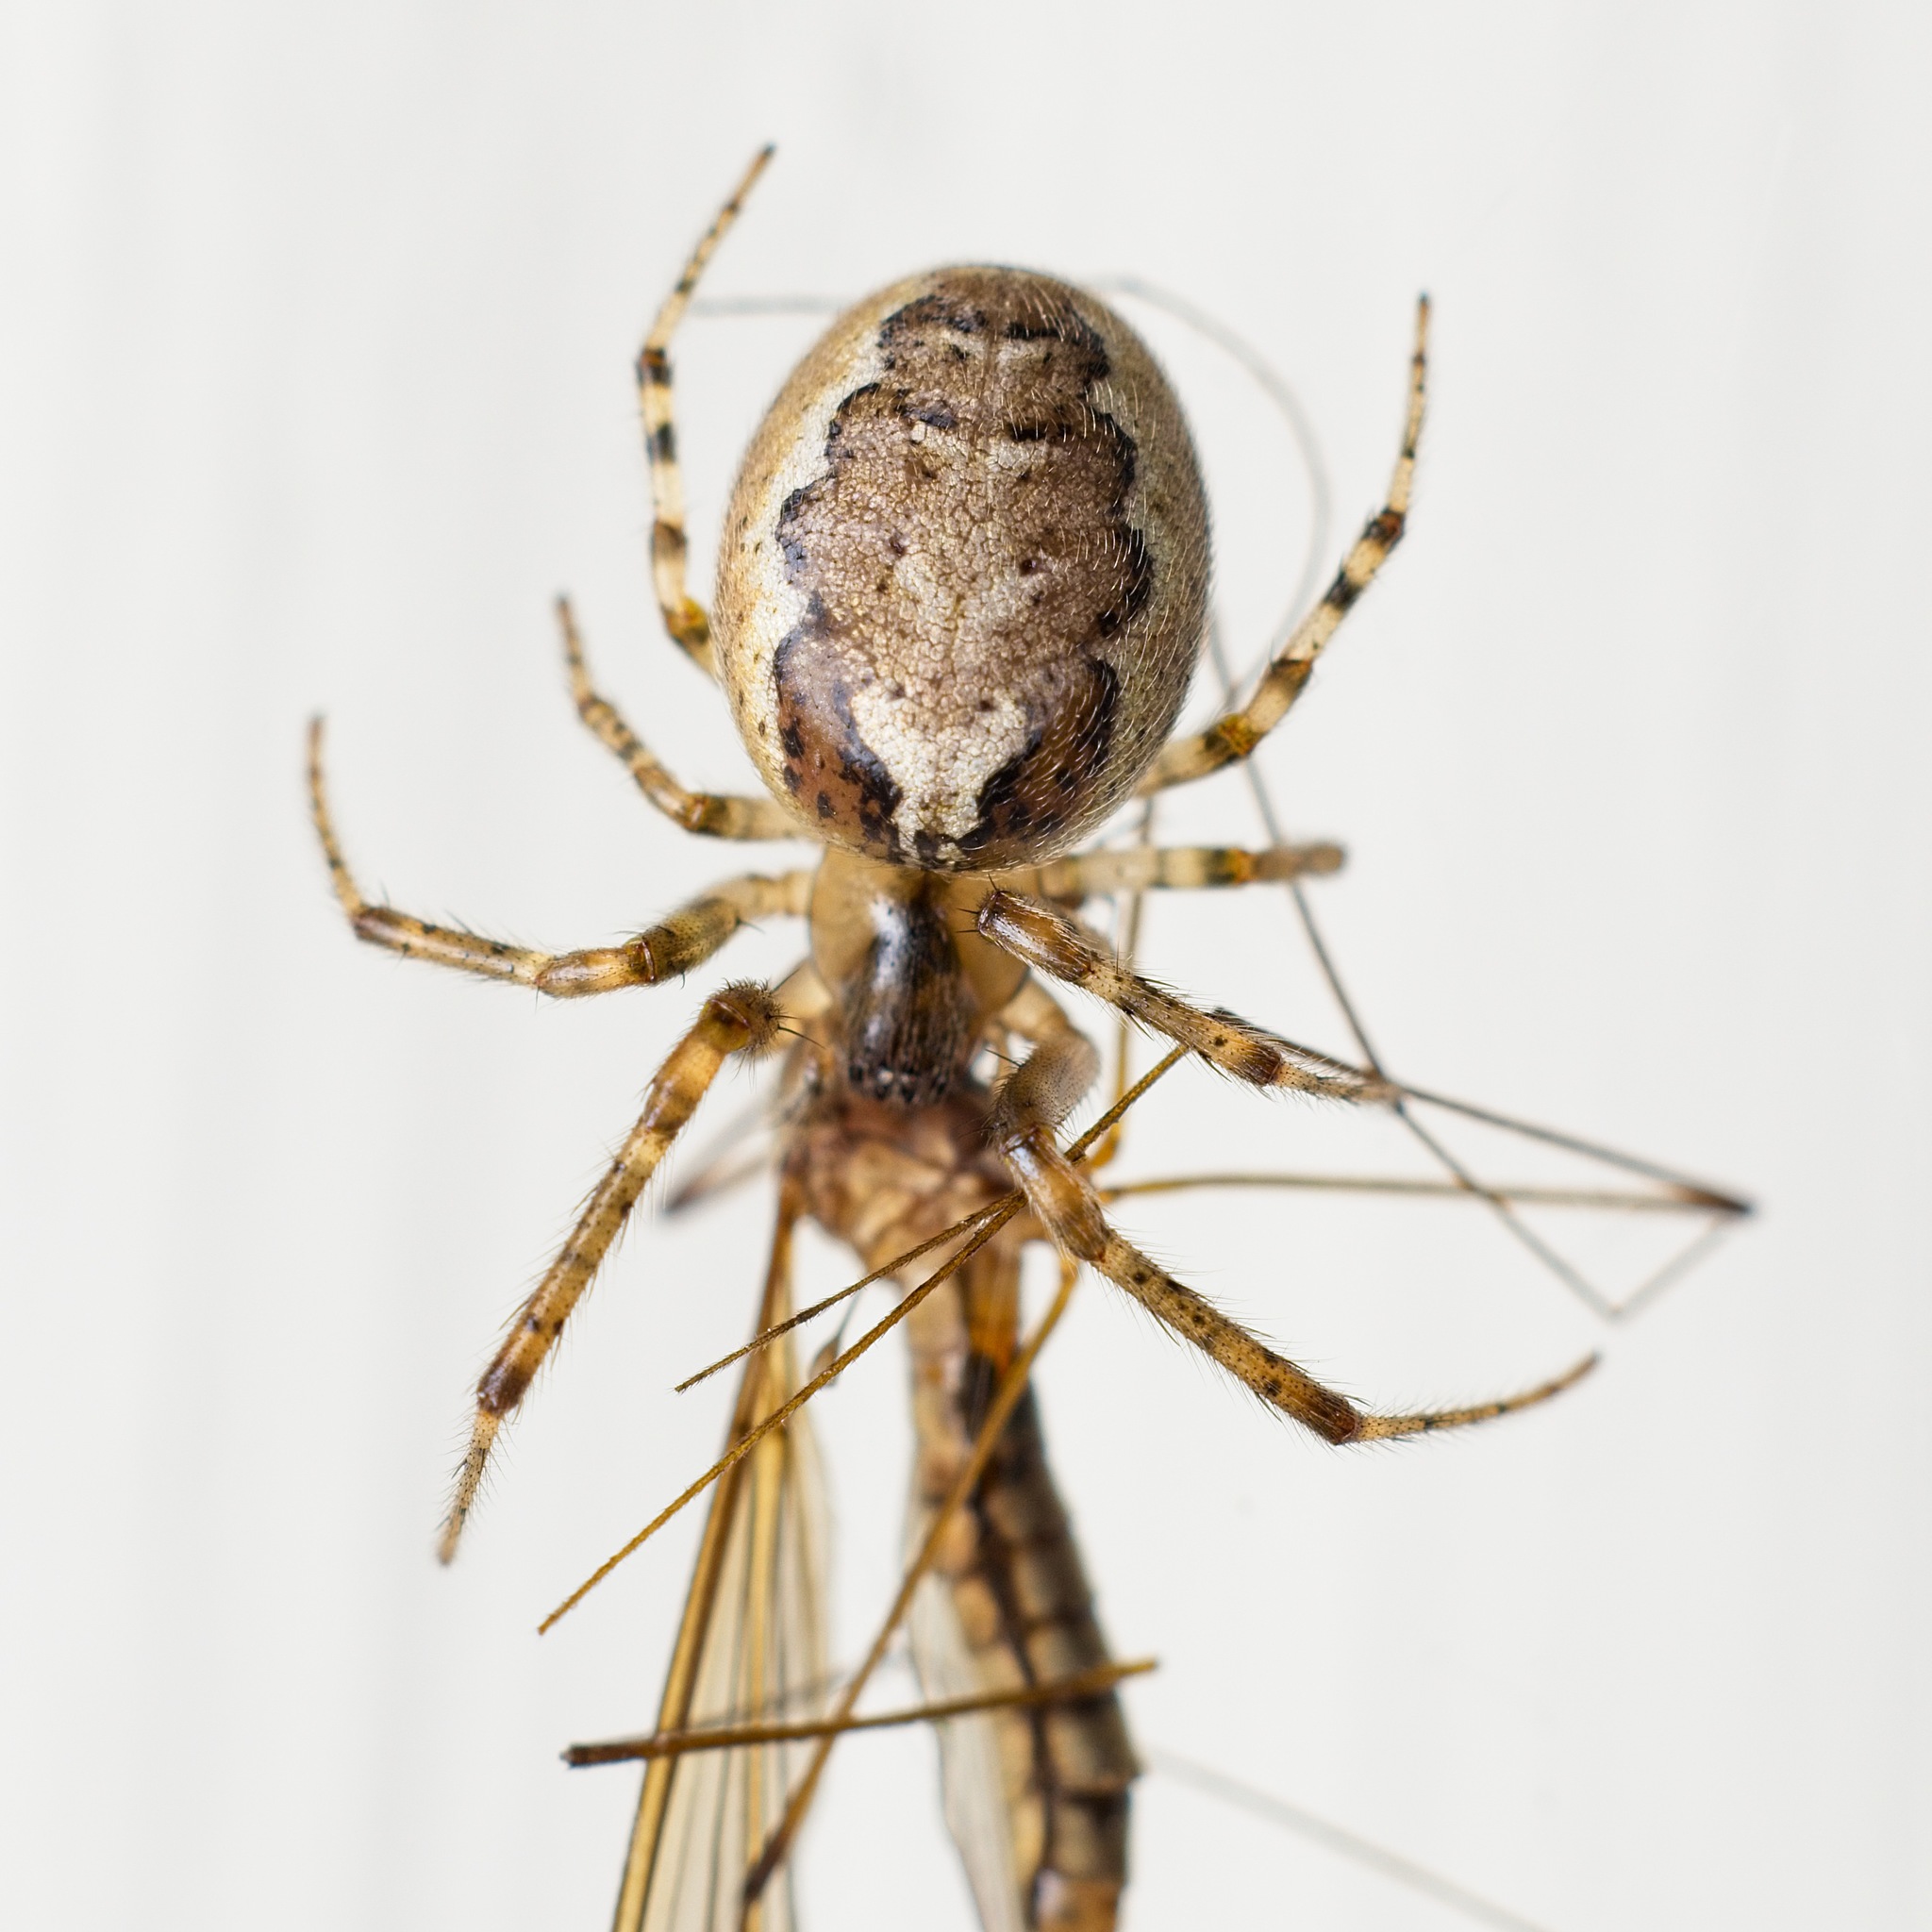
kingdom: Animalia
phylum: Arthropoda
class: Arachnida
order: Araneae
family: Araneidae
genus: Zygiella
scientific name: Zygiella x-notata
